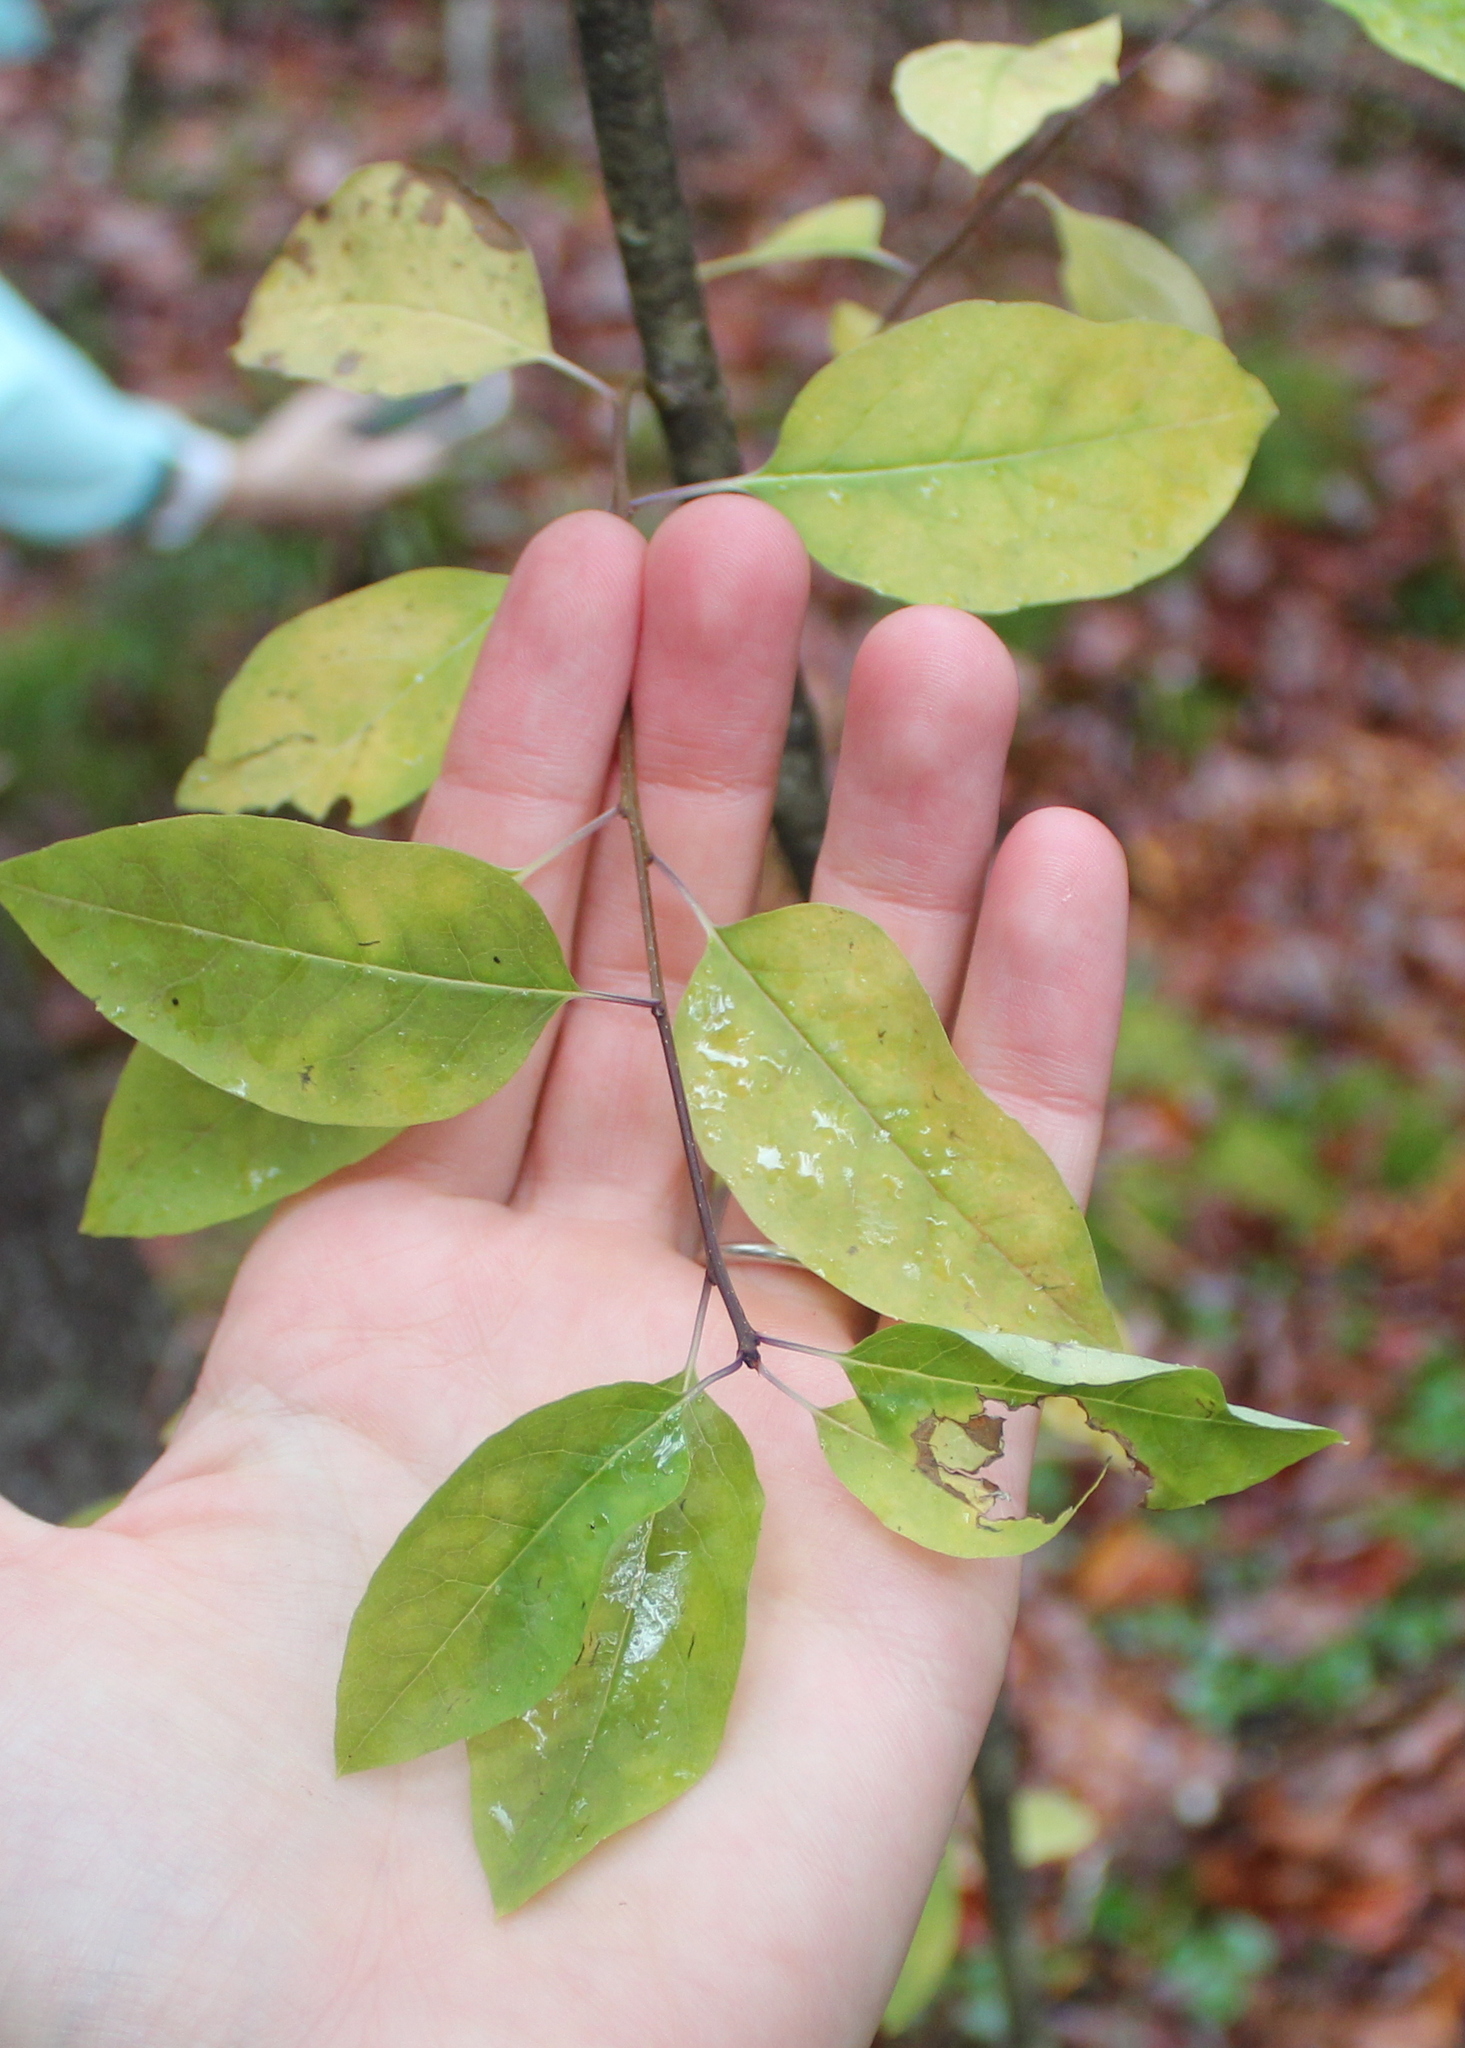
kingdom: Plantae
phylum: Tracheophyta
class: Magnoliopsida
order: Aquifoliales
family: Aquifoliaceae
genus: Ilex
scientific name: Ilex mucronata
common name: Catberry
